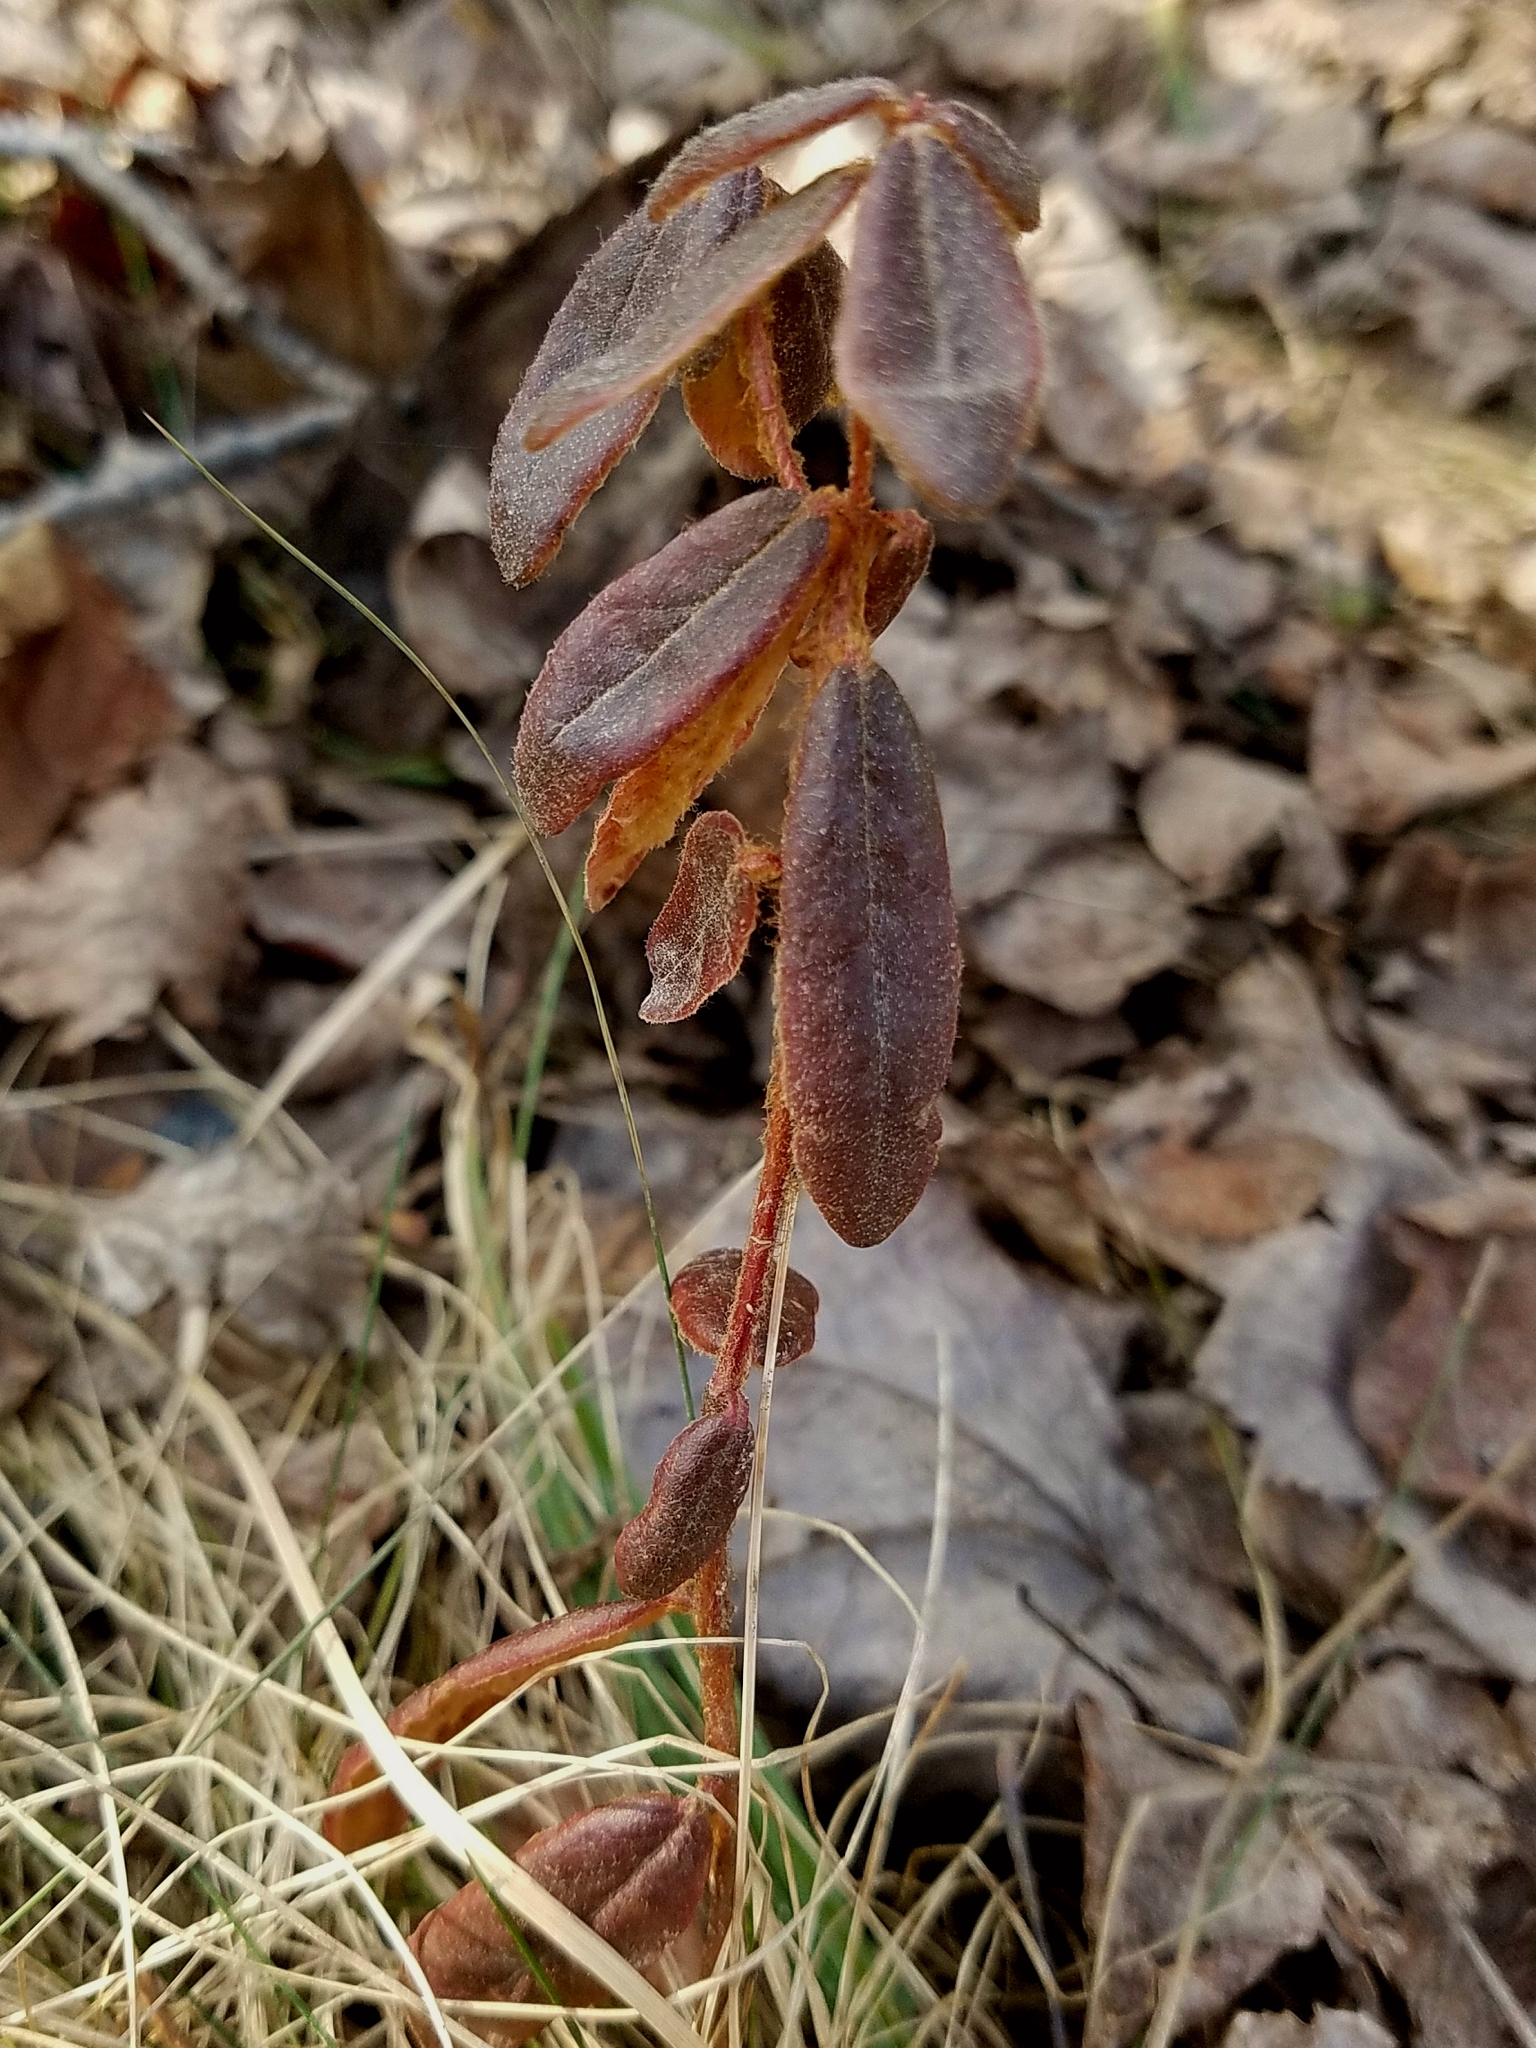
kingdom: Plantae
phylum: Tracheophyta
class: Magnoliopsida
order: Ericales
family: Ericaceae
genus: Rhododendron
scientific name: Rhododendron groenlandicum
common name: Bog labrador tea
